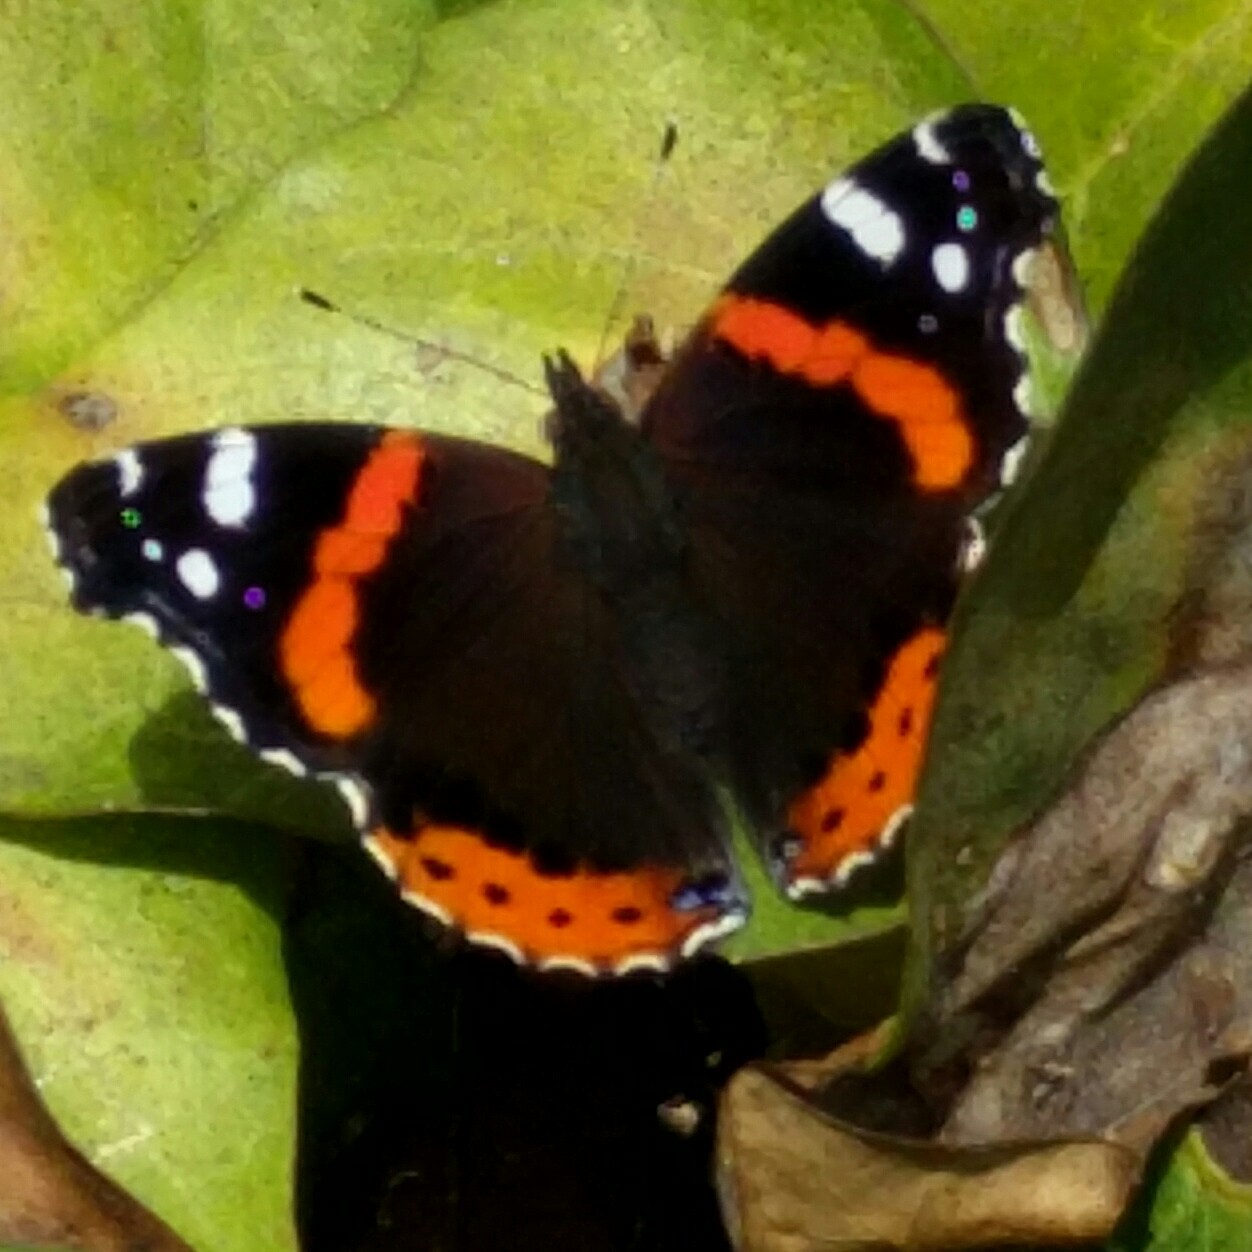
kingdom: Animalia
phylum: Arthropoda
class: Insecta
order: Lepidoptera
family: Nymphalidae
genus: Vanessa
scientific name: Vanessa atalanta
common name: Red admiral
